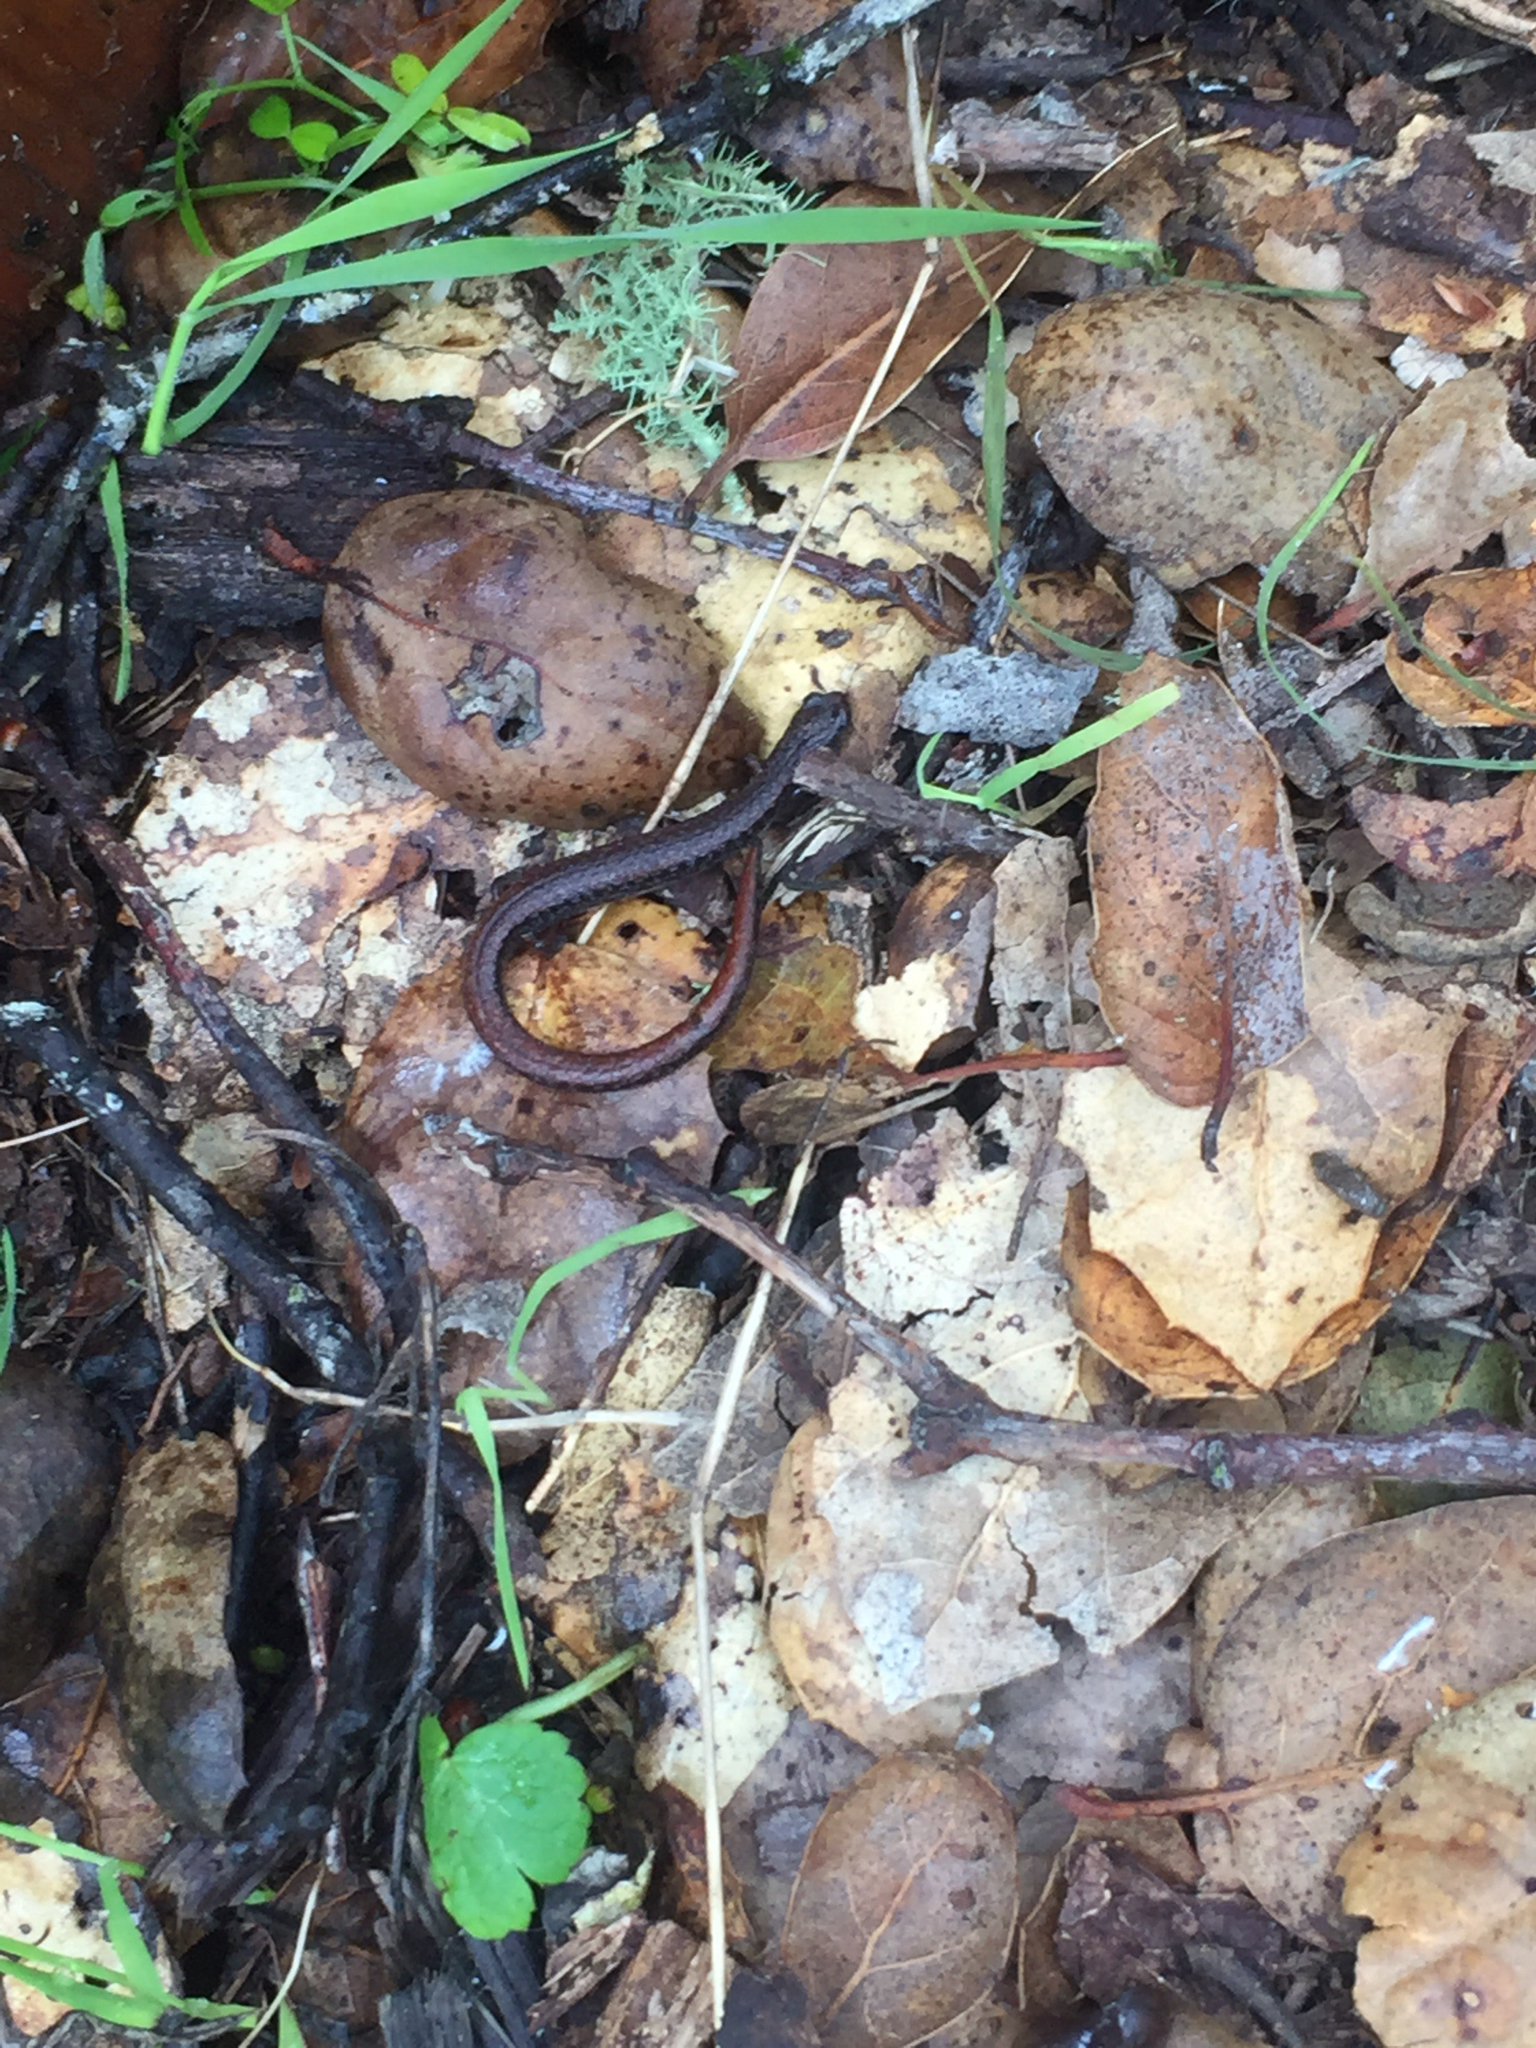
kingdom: Animalia
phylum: Chordata
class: Amphibia
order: Caudata
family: Plethodontidae
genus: Batrachoseps
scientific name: Batrachoseps attenuatus
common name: California slender salamander
